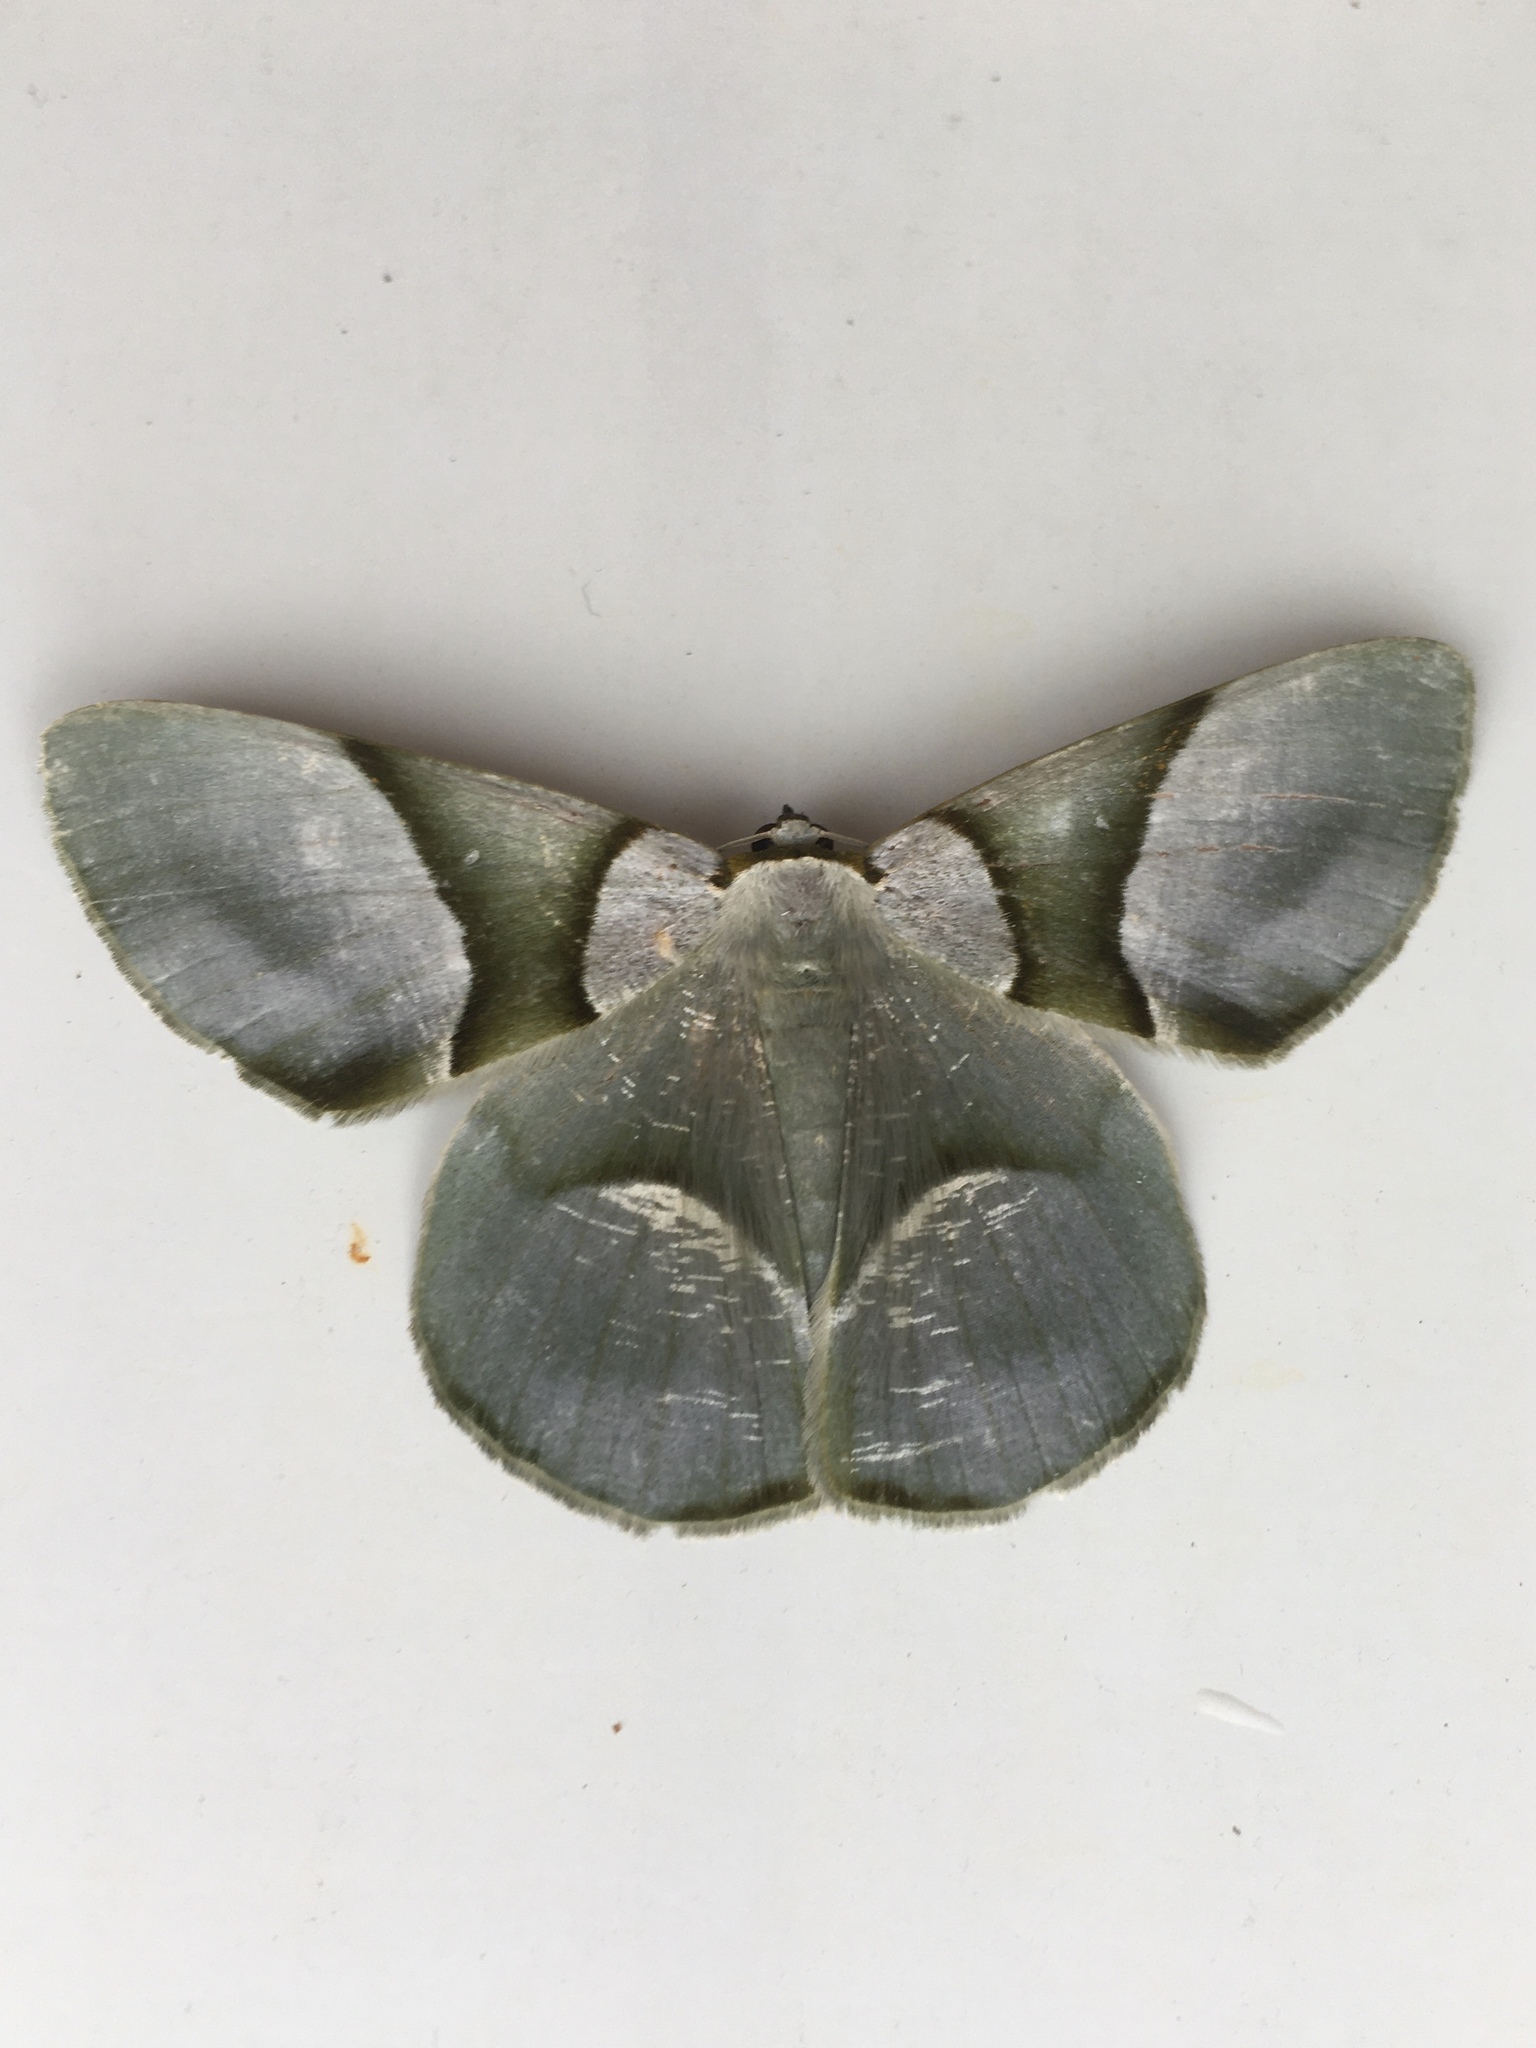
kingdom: Animalia
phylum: Arthropoda
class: Insecta
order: Lepidoptera
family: Geometridae
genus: Calleremites
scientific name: Calleremites subornata
